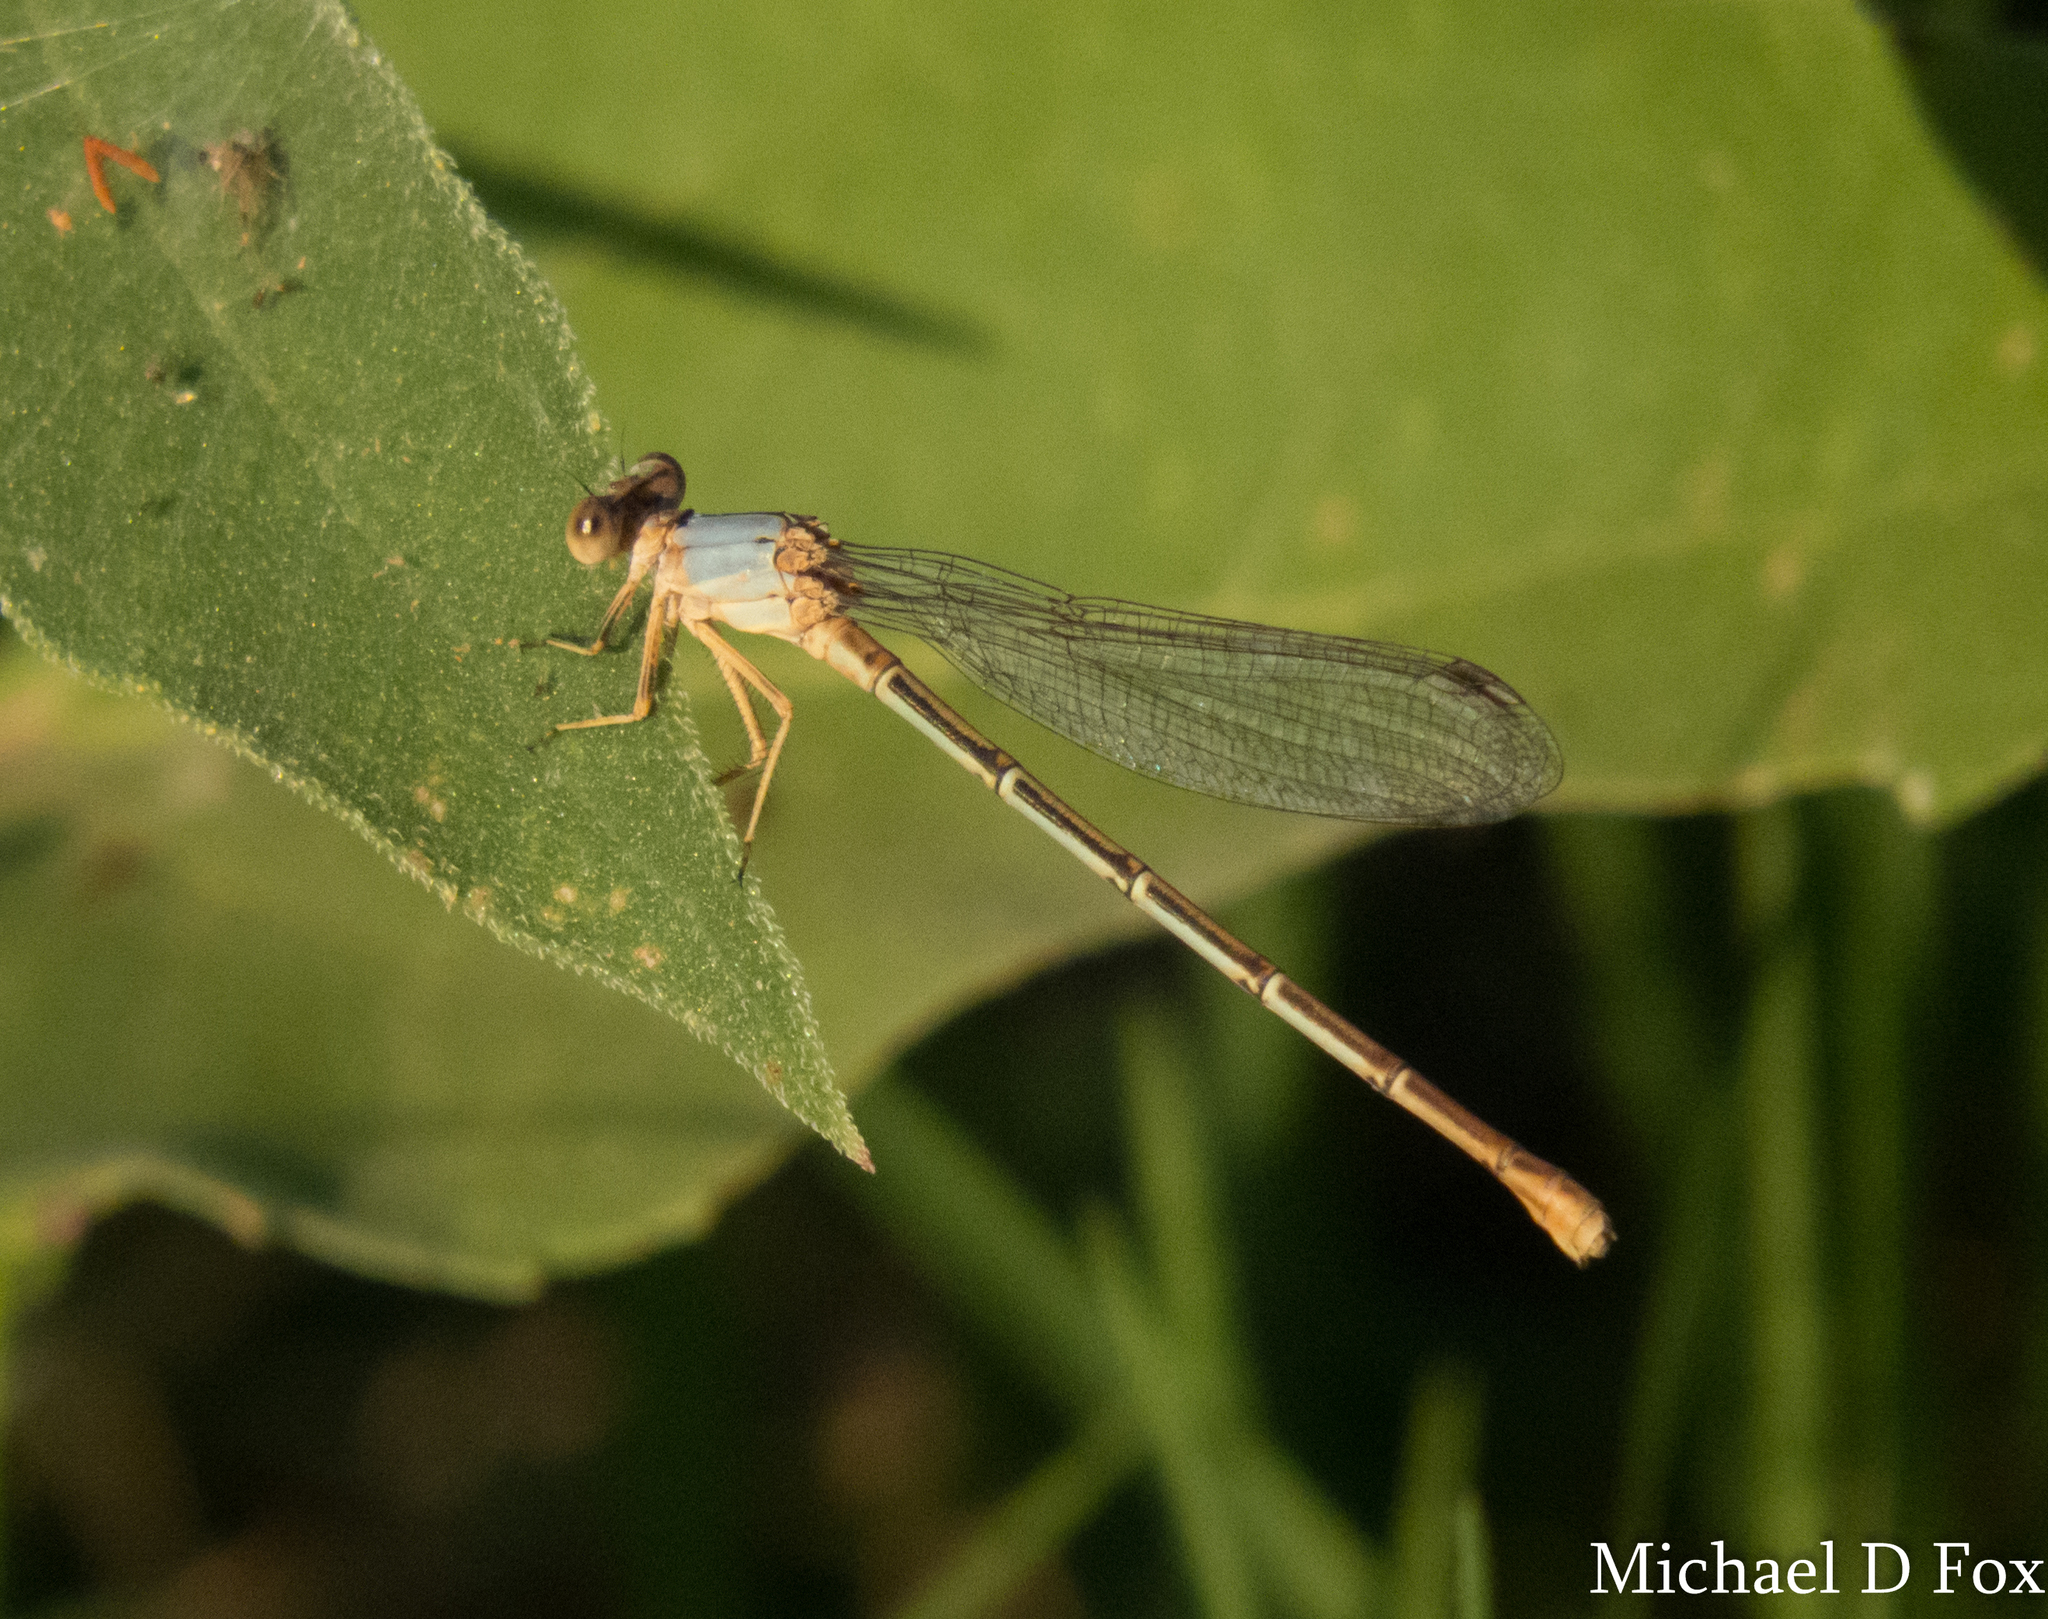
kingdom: Animalia
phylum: Arthropoda
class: Insecta
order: Odonata
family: Coenagrionidae
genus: Argia
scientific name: Argia moesta
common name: Powdered dancer
